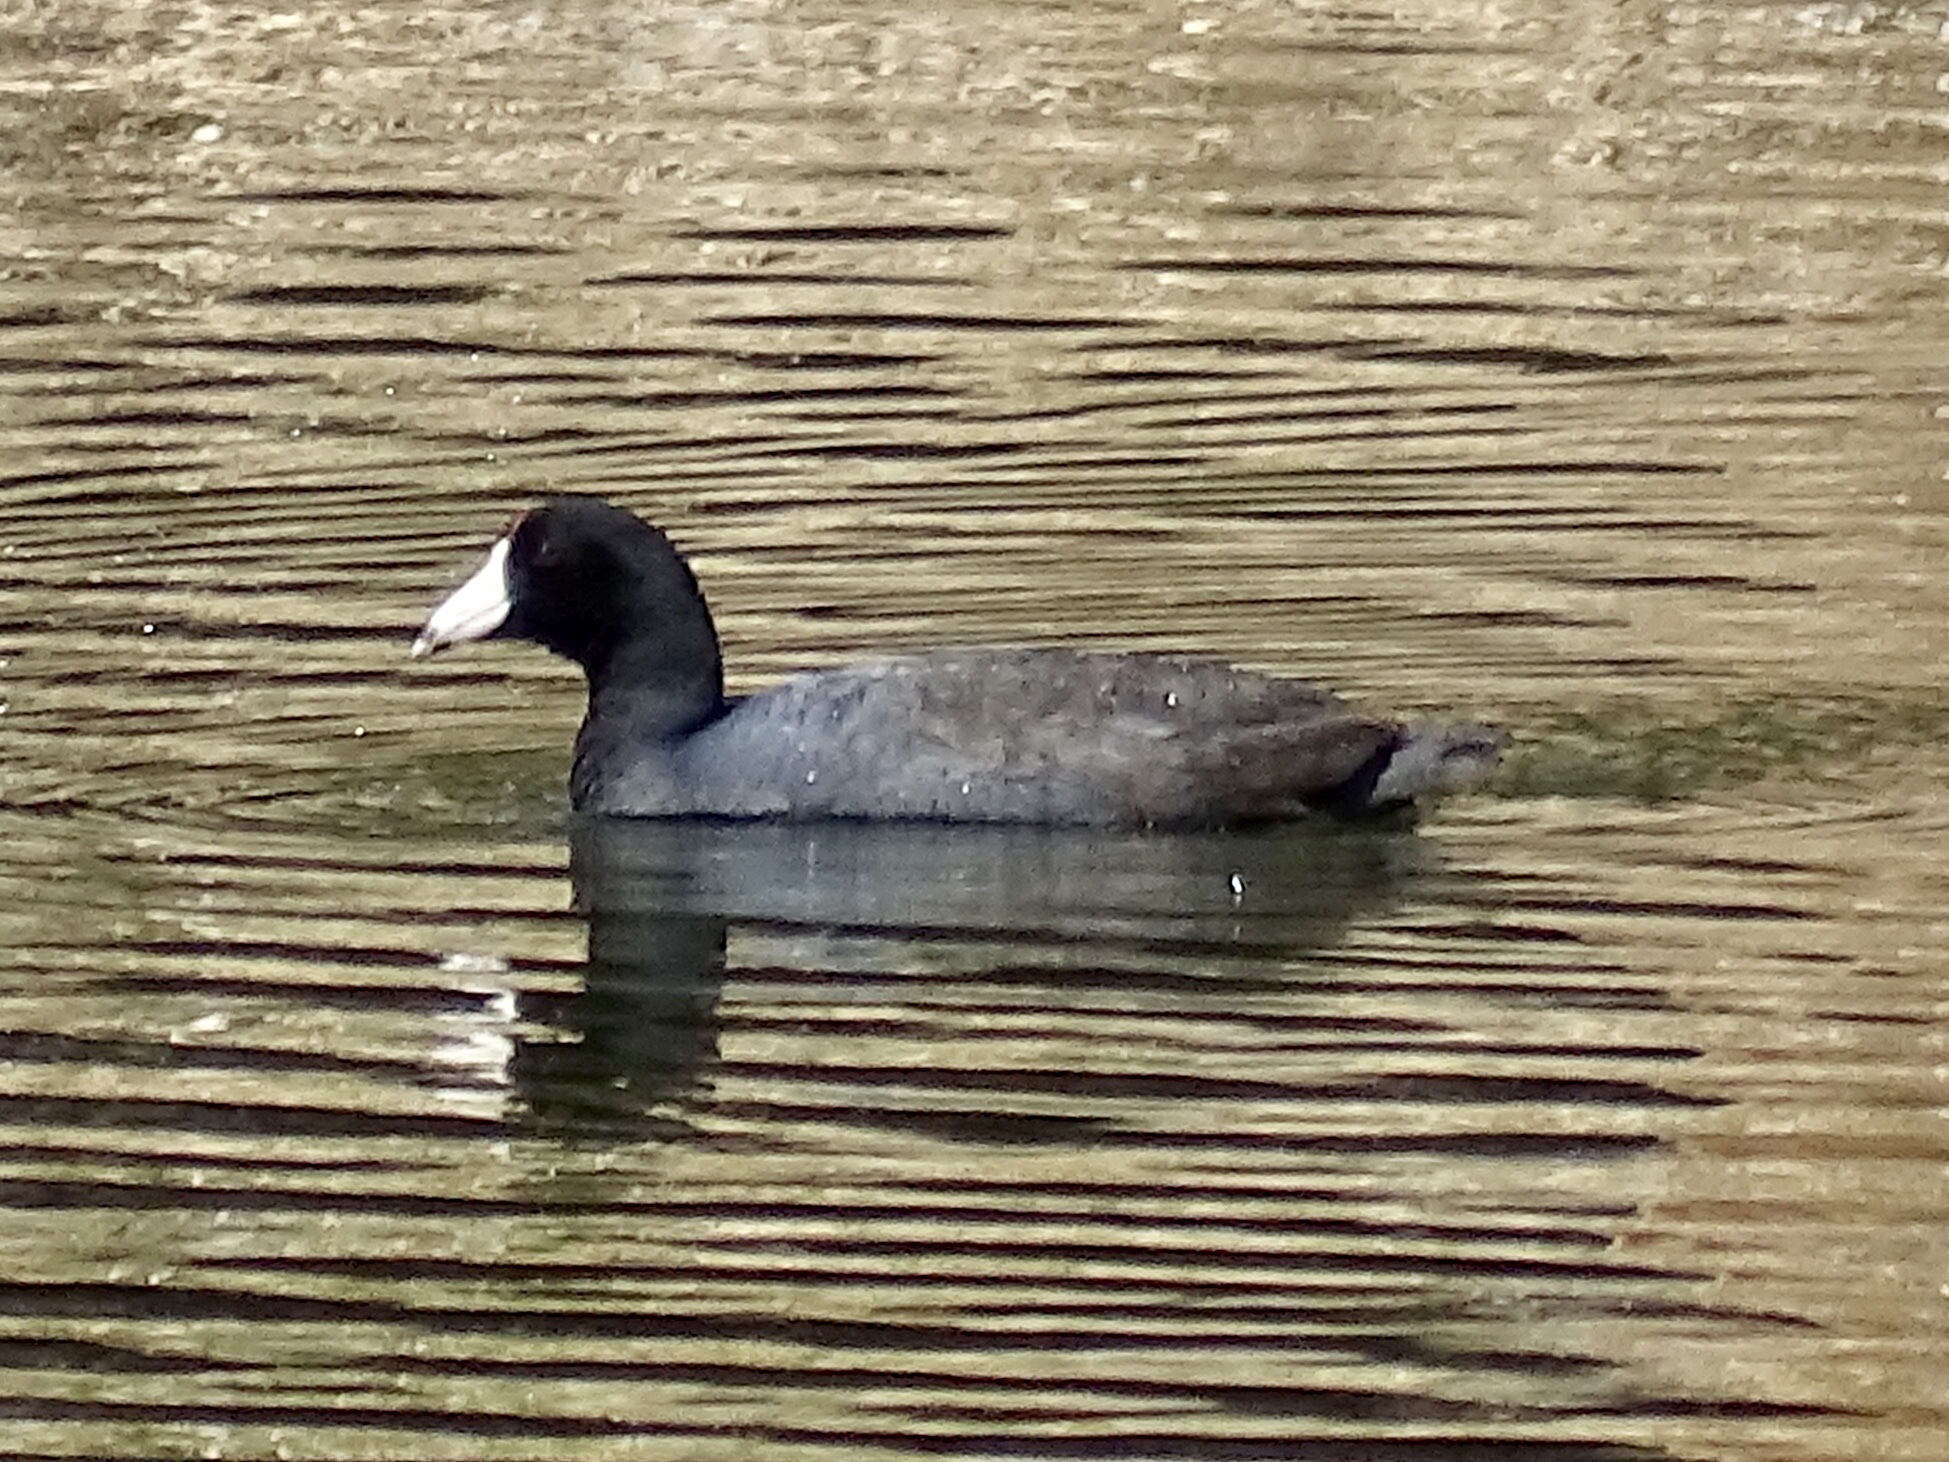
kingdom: Animalia
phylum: Chordata
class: Aves
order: Gruiformes
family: Rallidae
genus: Fulica
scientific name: Fulica americana
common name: American coot
